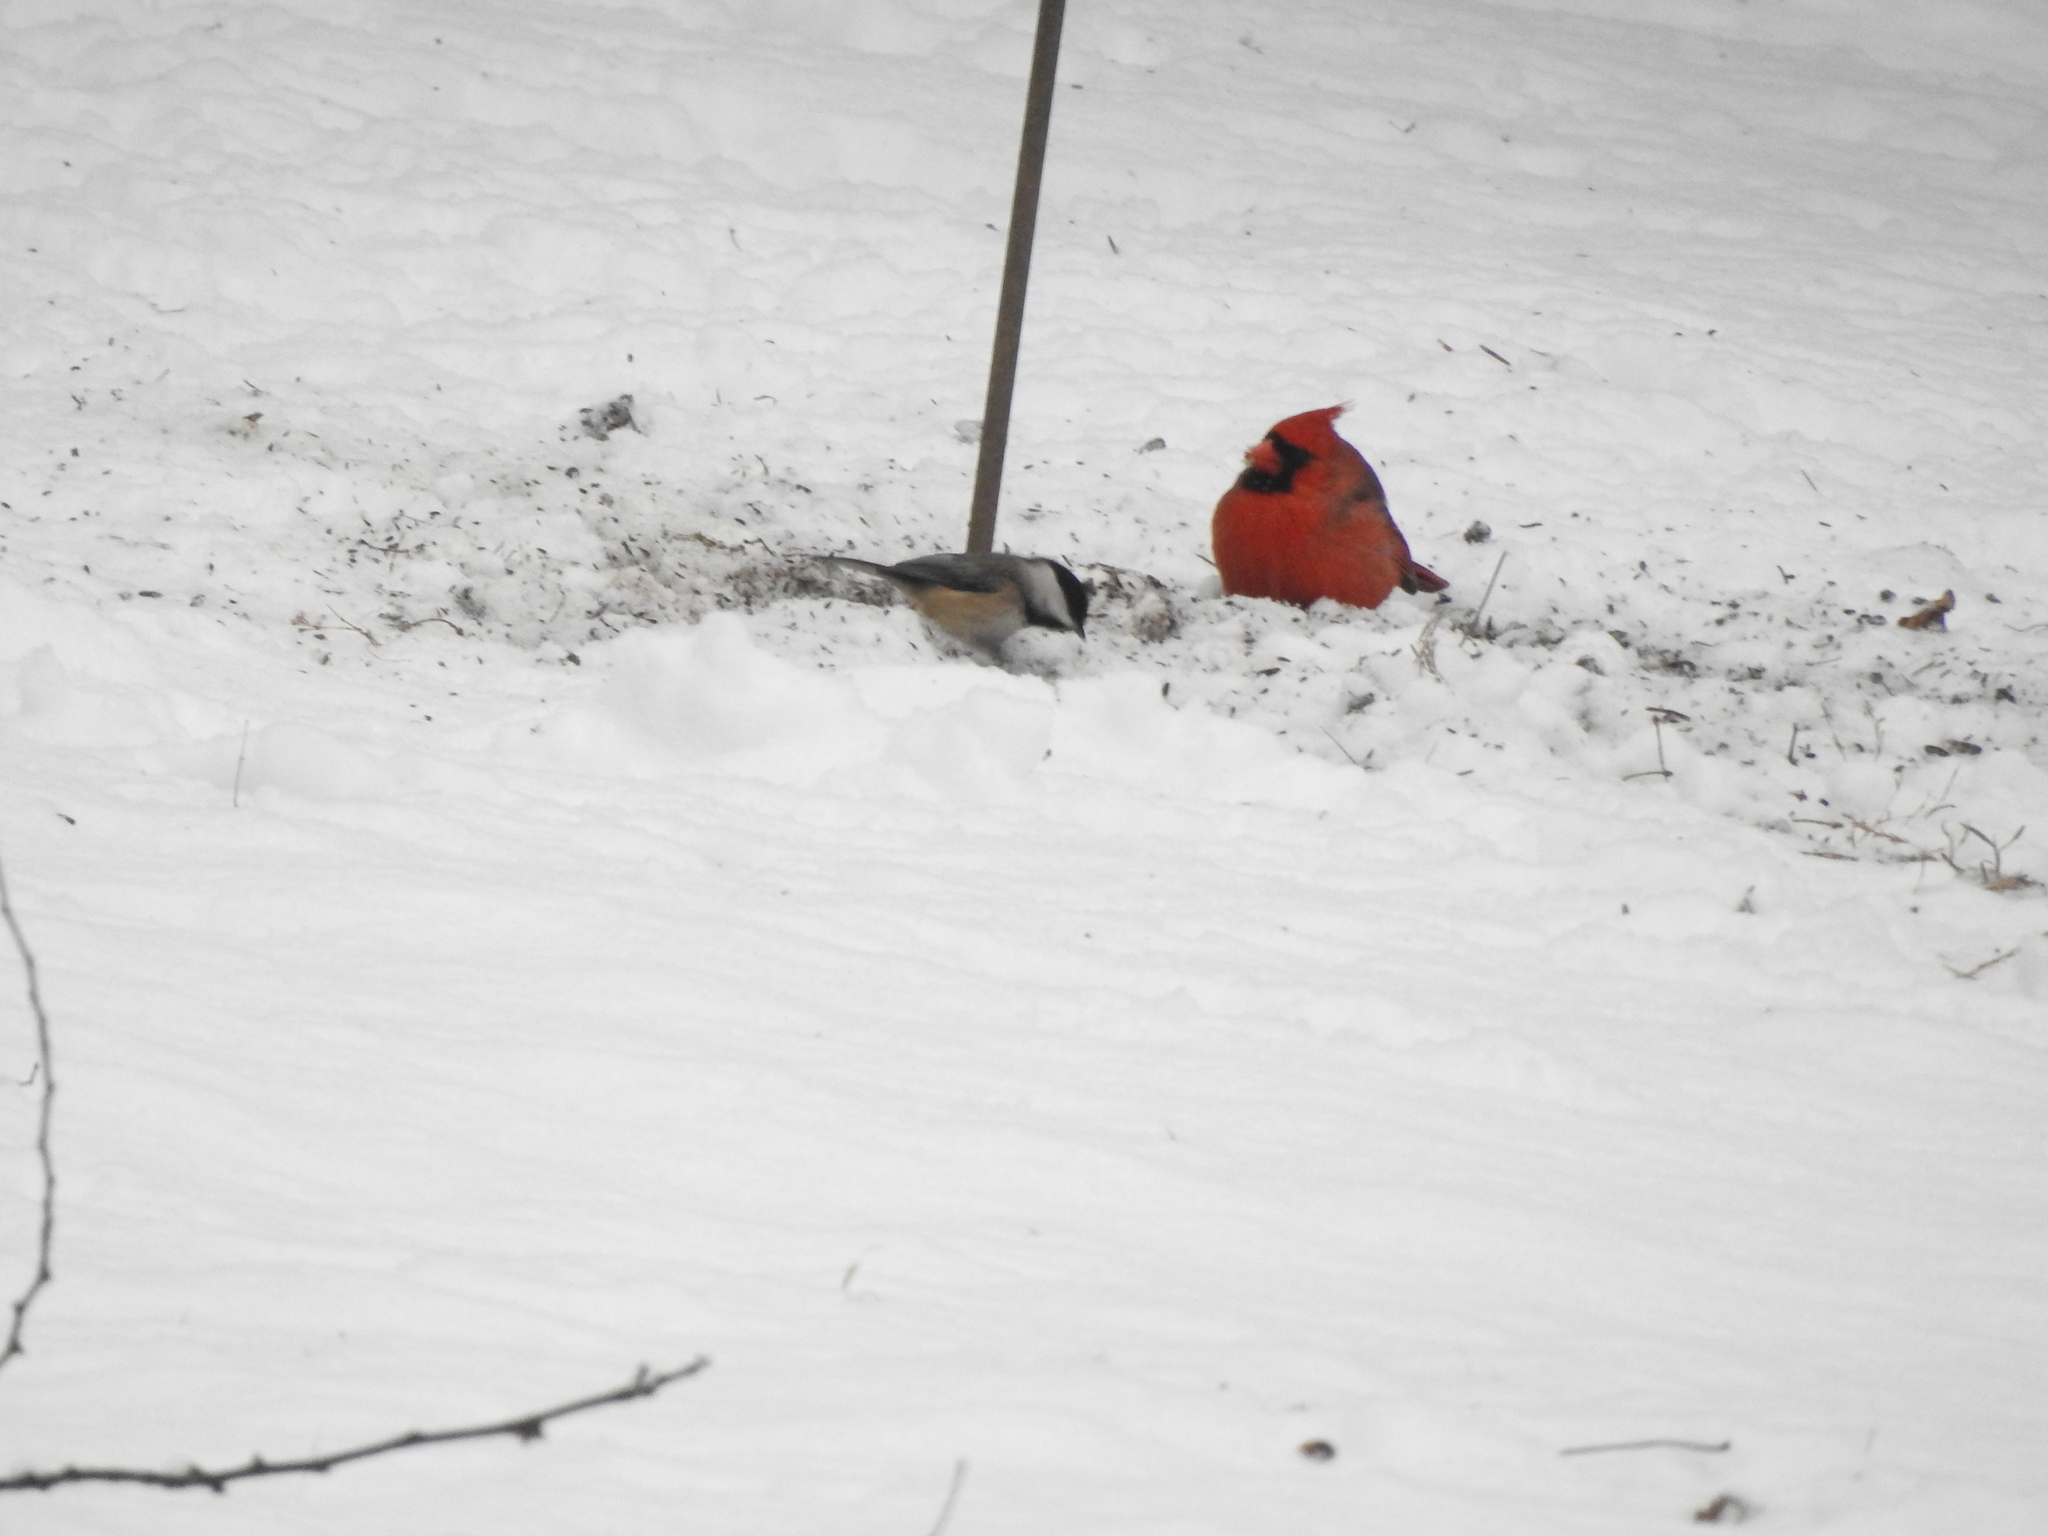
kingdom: Animalia
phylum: Chordata
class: Aves
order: Passeriformes
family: Paridae
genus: Poecile
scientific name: Poecile carolinensis
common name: Carolina chickadee
